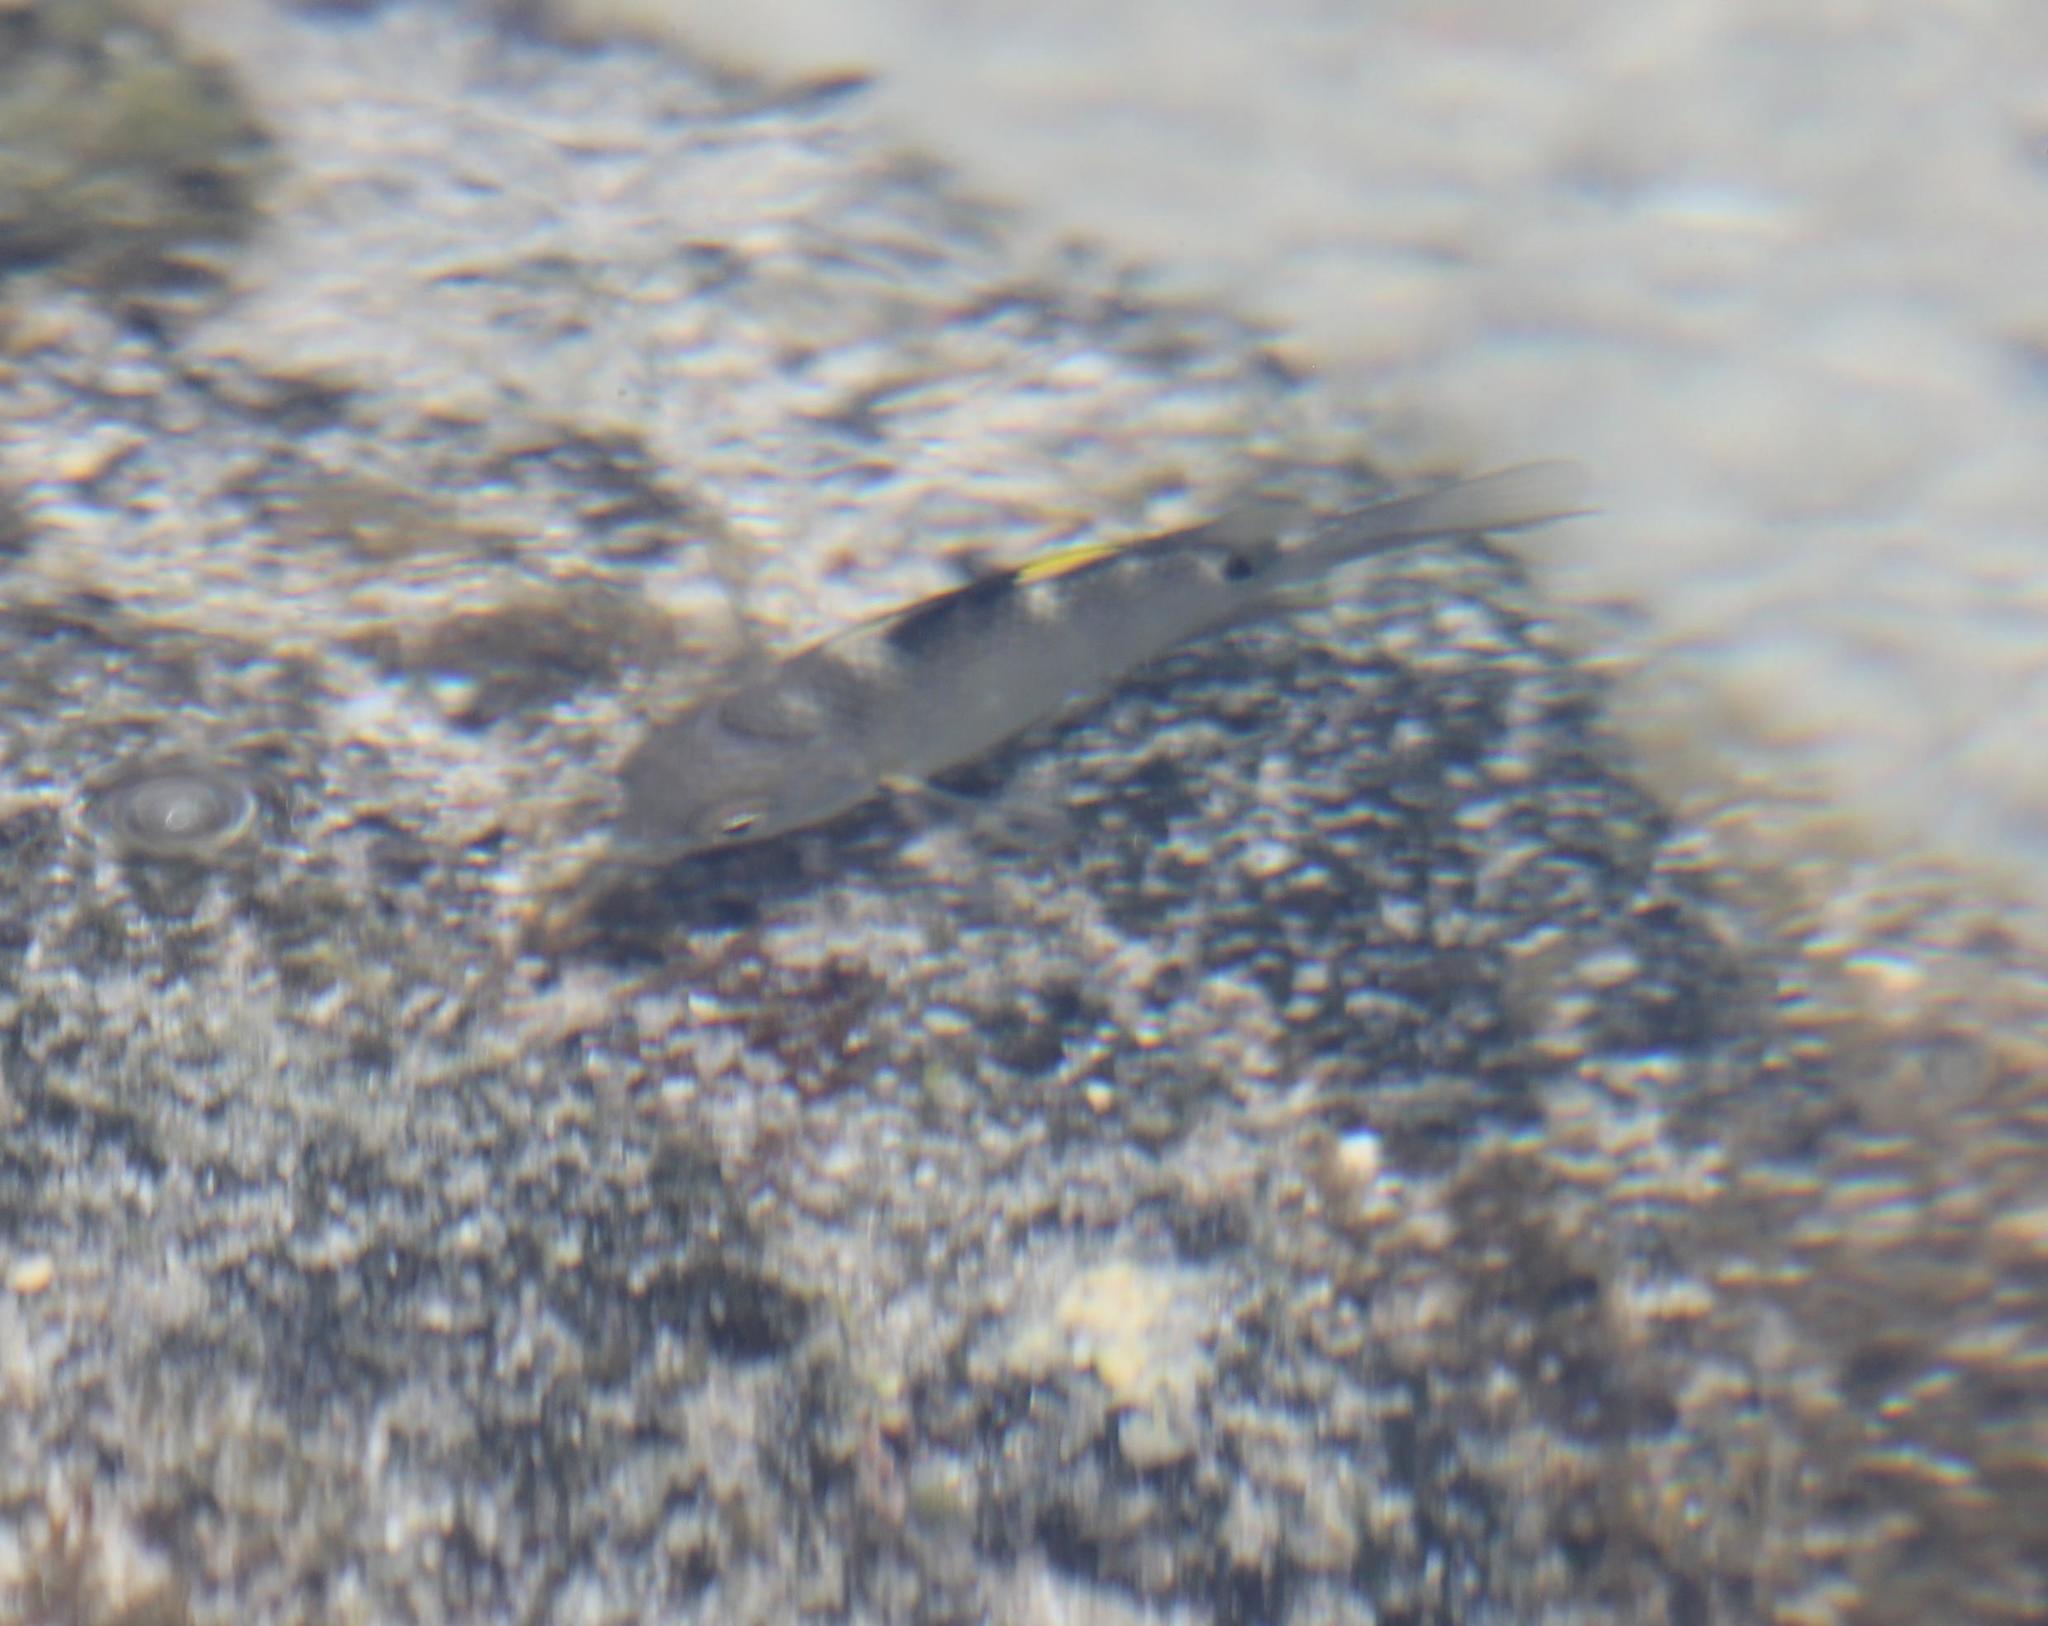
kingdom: Animalia
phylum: Chordata
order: Perciformes
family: Pomacentridae
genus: Abudefduf
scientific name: Abudefduf sordidus
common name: Blackspot sergeant
